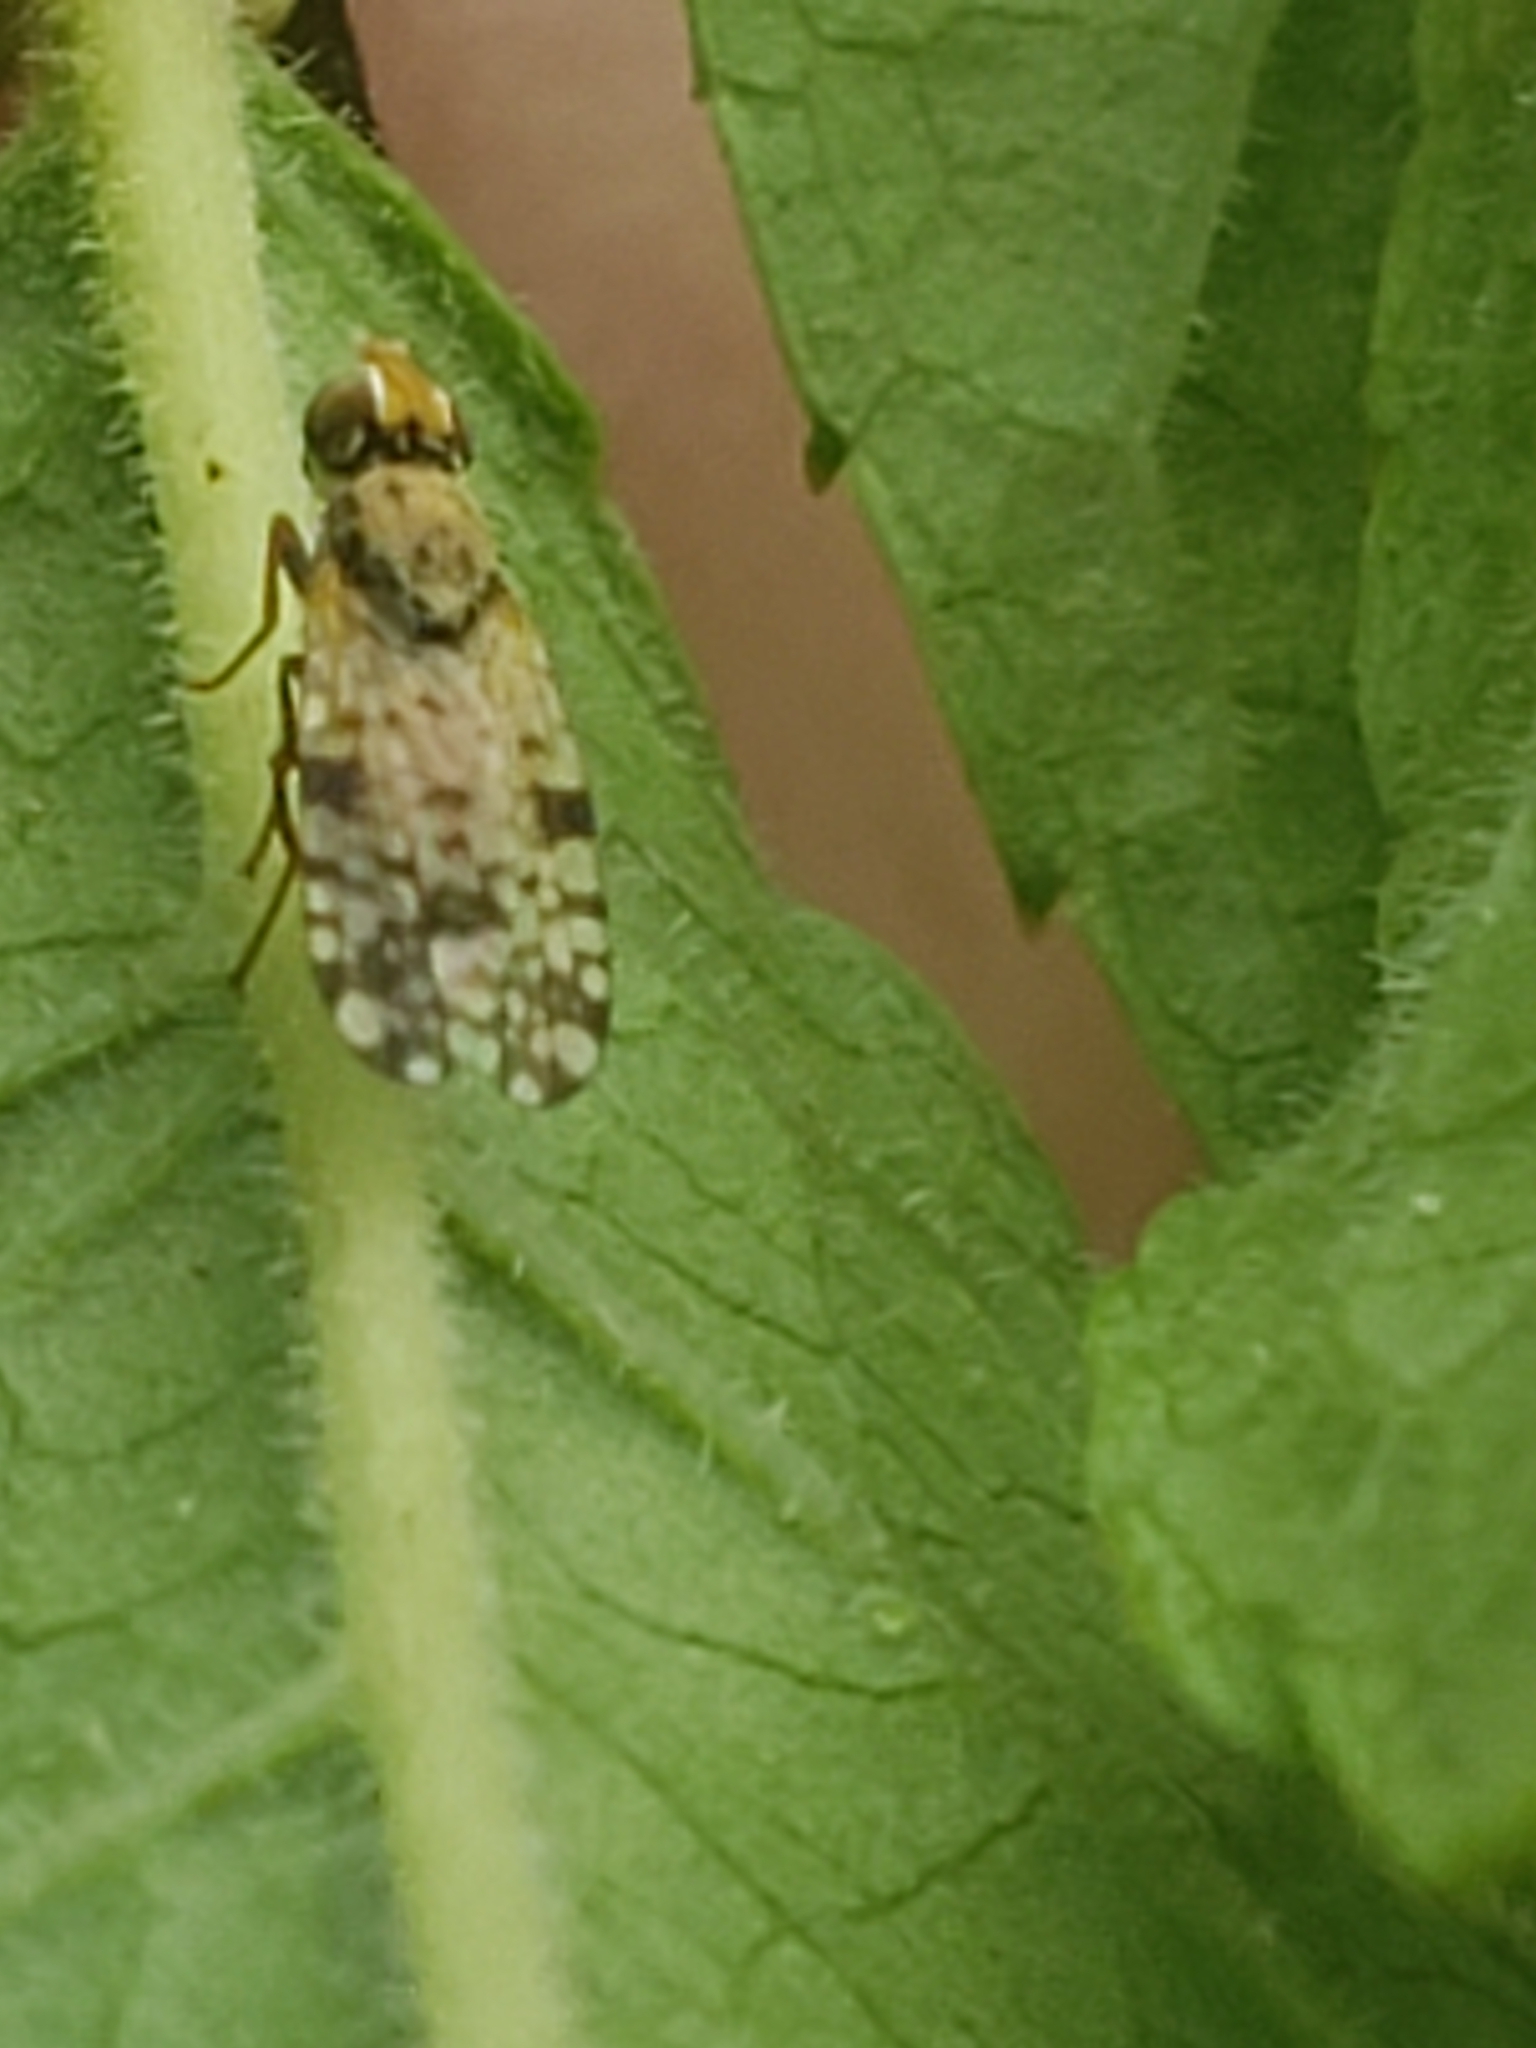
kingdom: Animalia
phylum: Arthropoda
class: Insecta
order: Diptera
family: Tephritidae
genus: Dioxyna
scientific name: Dioxyna picciola
